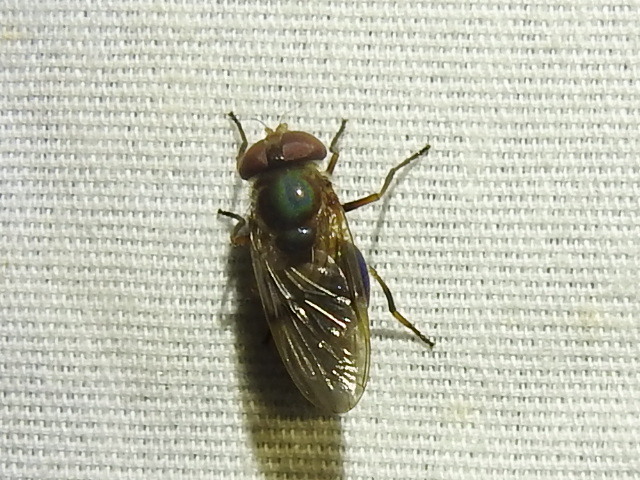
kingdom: Animalia
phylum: Arthropoda
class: Insecta
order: Diptera
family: Syrphidae
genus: Copestylum
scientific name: Copestylum vesicularium
